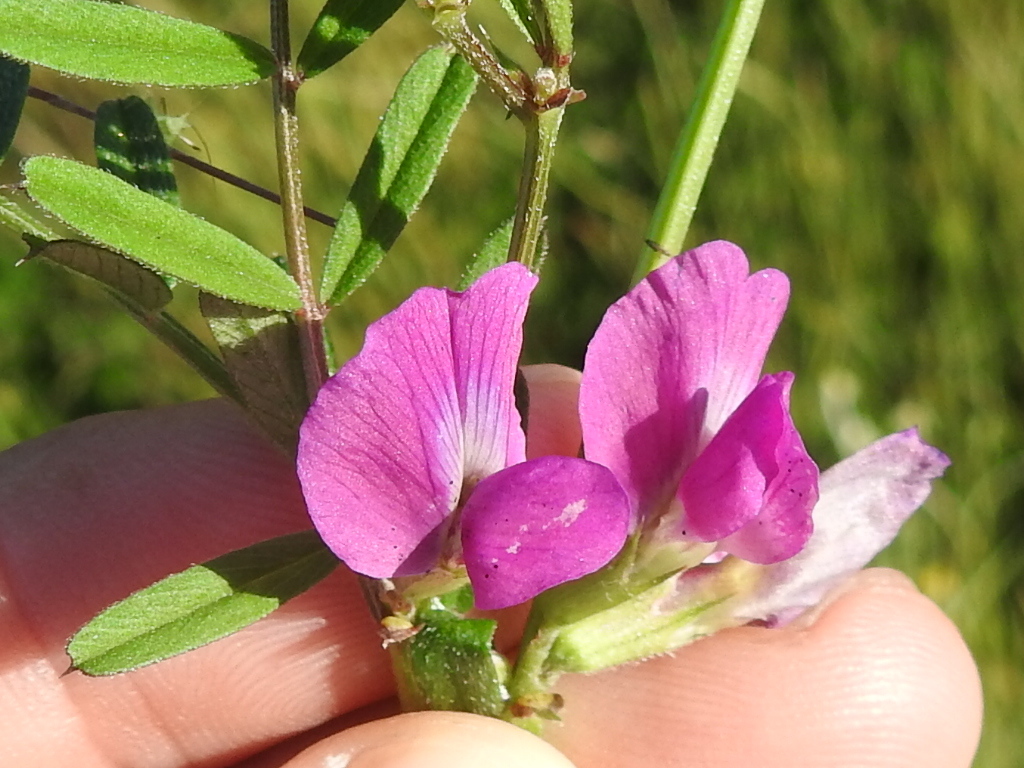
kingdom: Plantae
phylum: Tracheophyta
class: Magnoliopsida
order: Fabales
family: Fabaceae
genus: Vicia
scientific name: Vicia sativa
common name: Garden vetch
